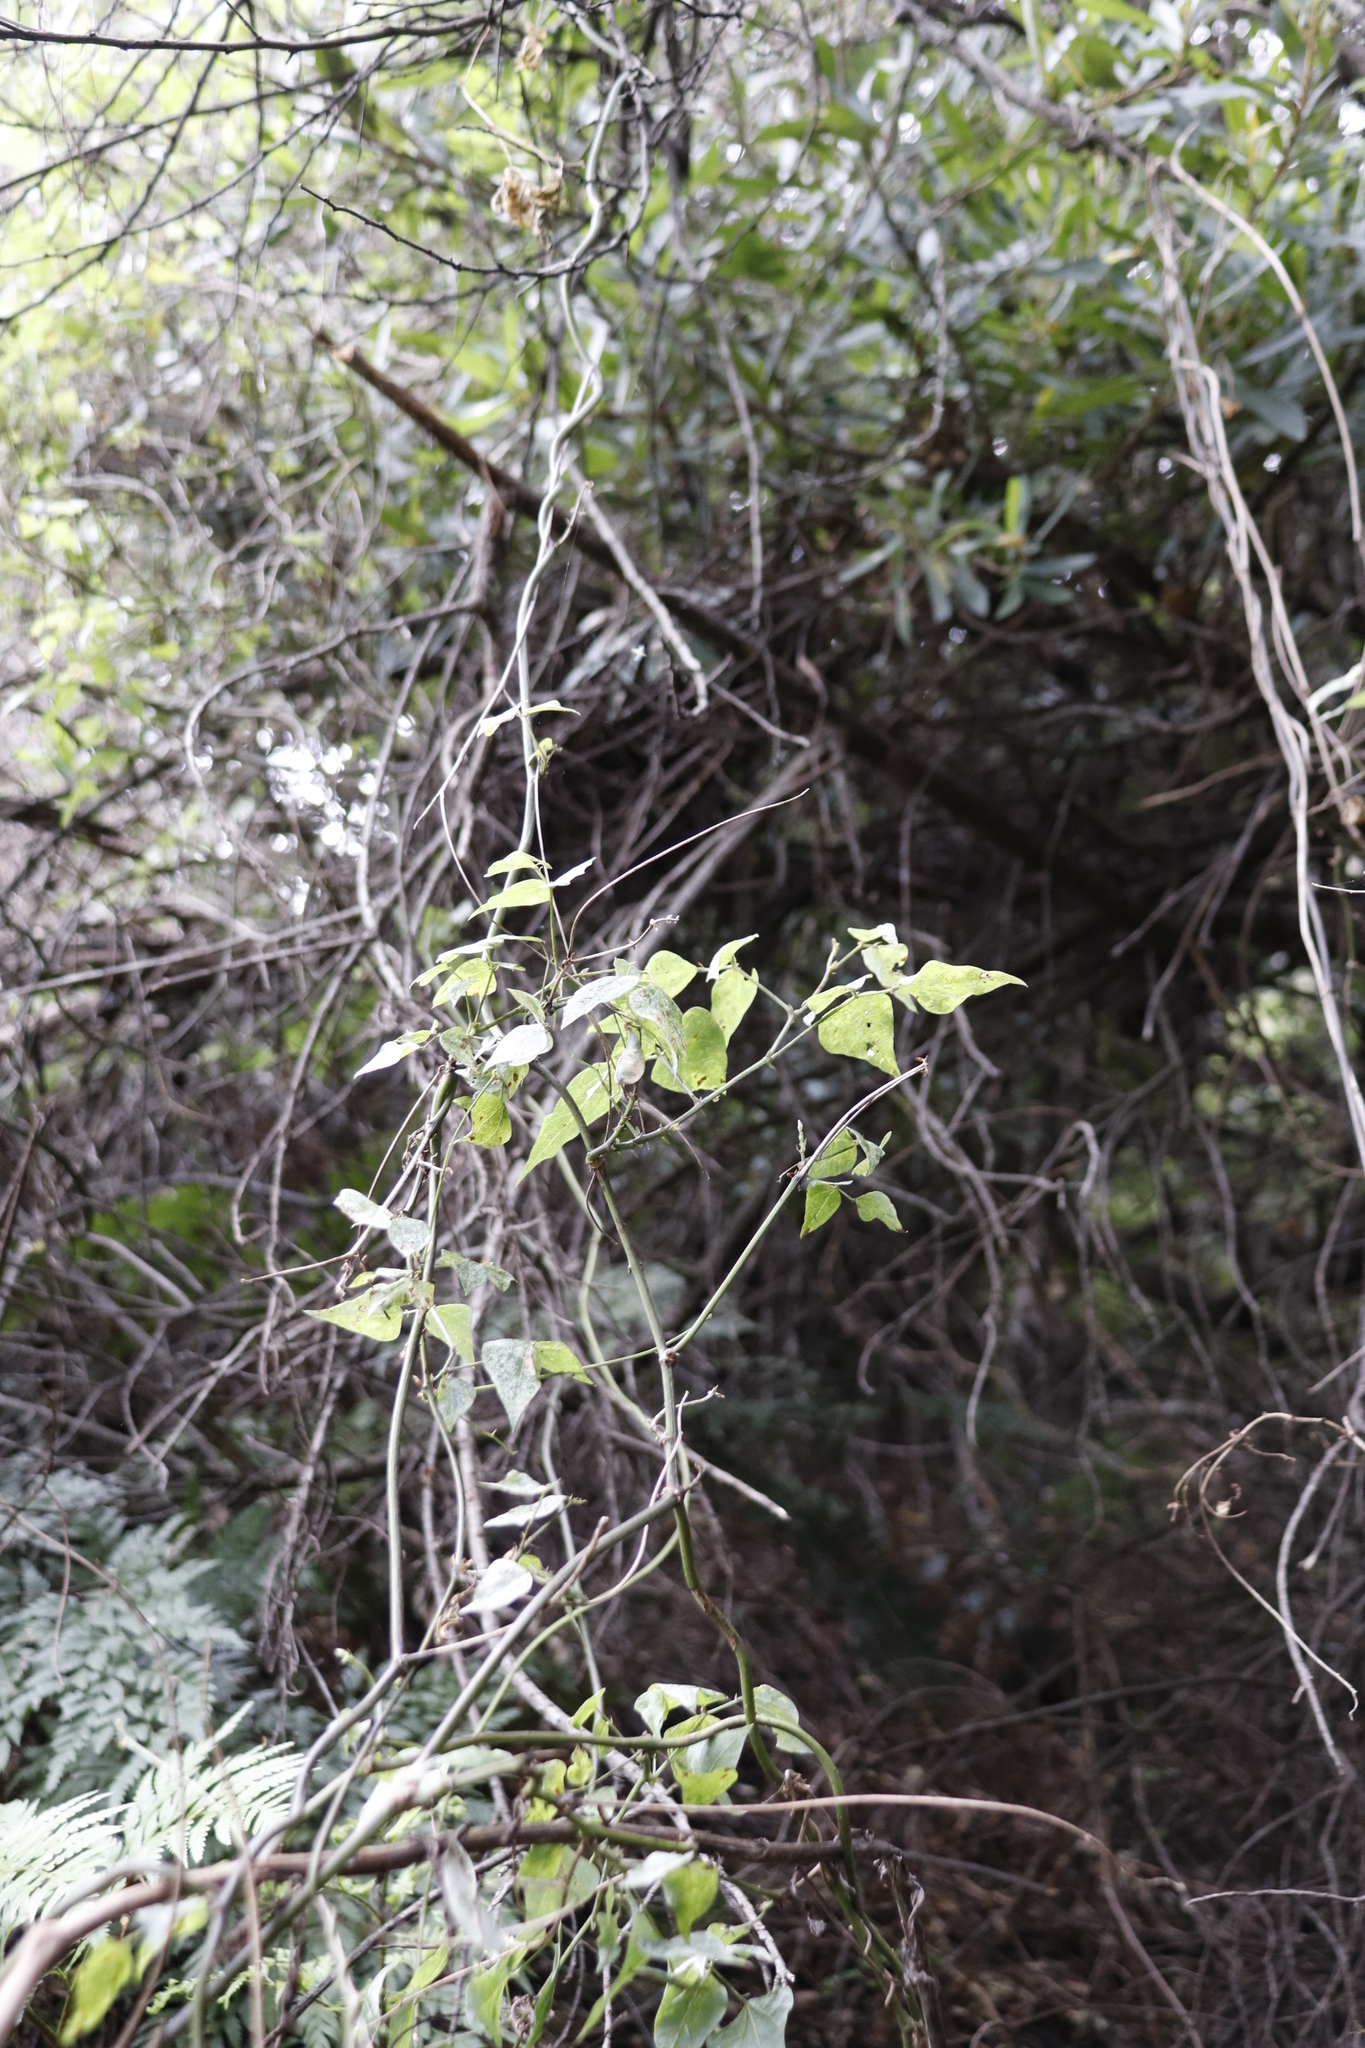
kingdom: Plantae
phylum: Tracheophyta
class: Magnoliopsida
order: Fabales
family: Fabaceae
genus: Dipogon
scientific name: Dipogon lignosus
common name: Okie bean
